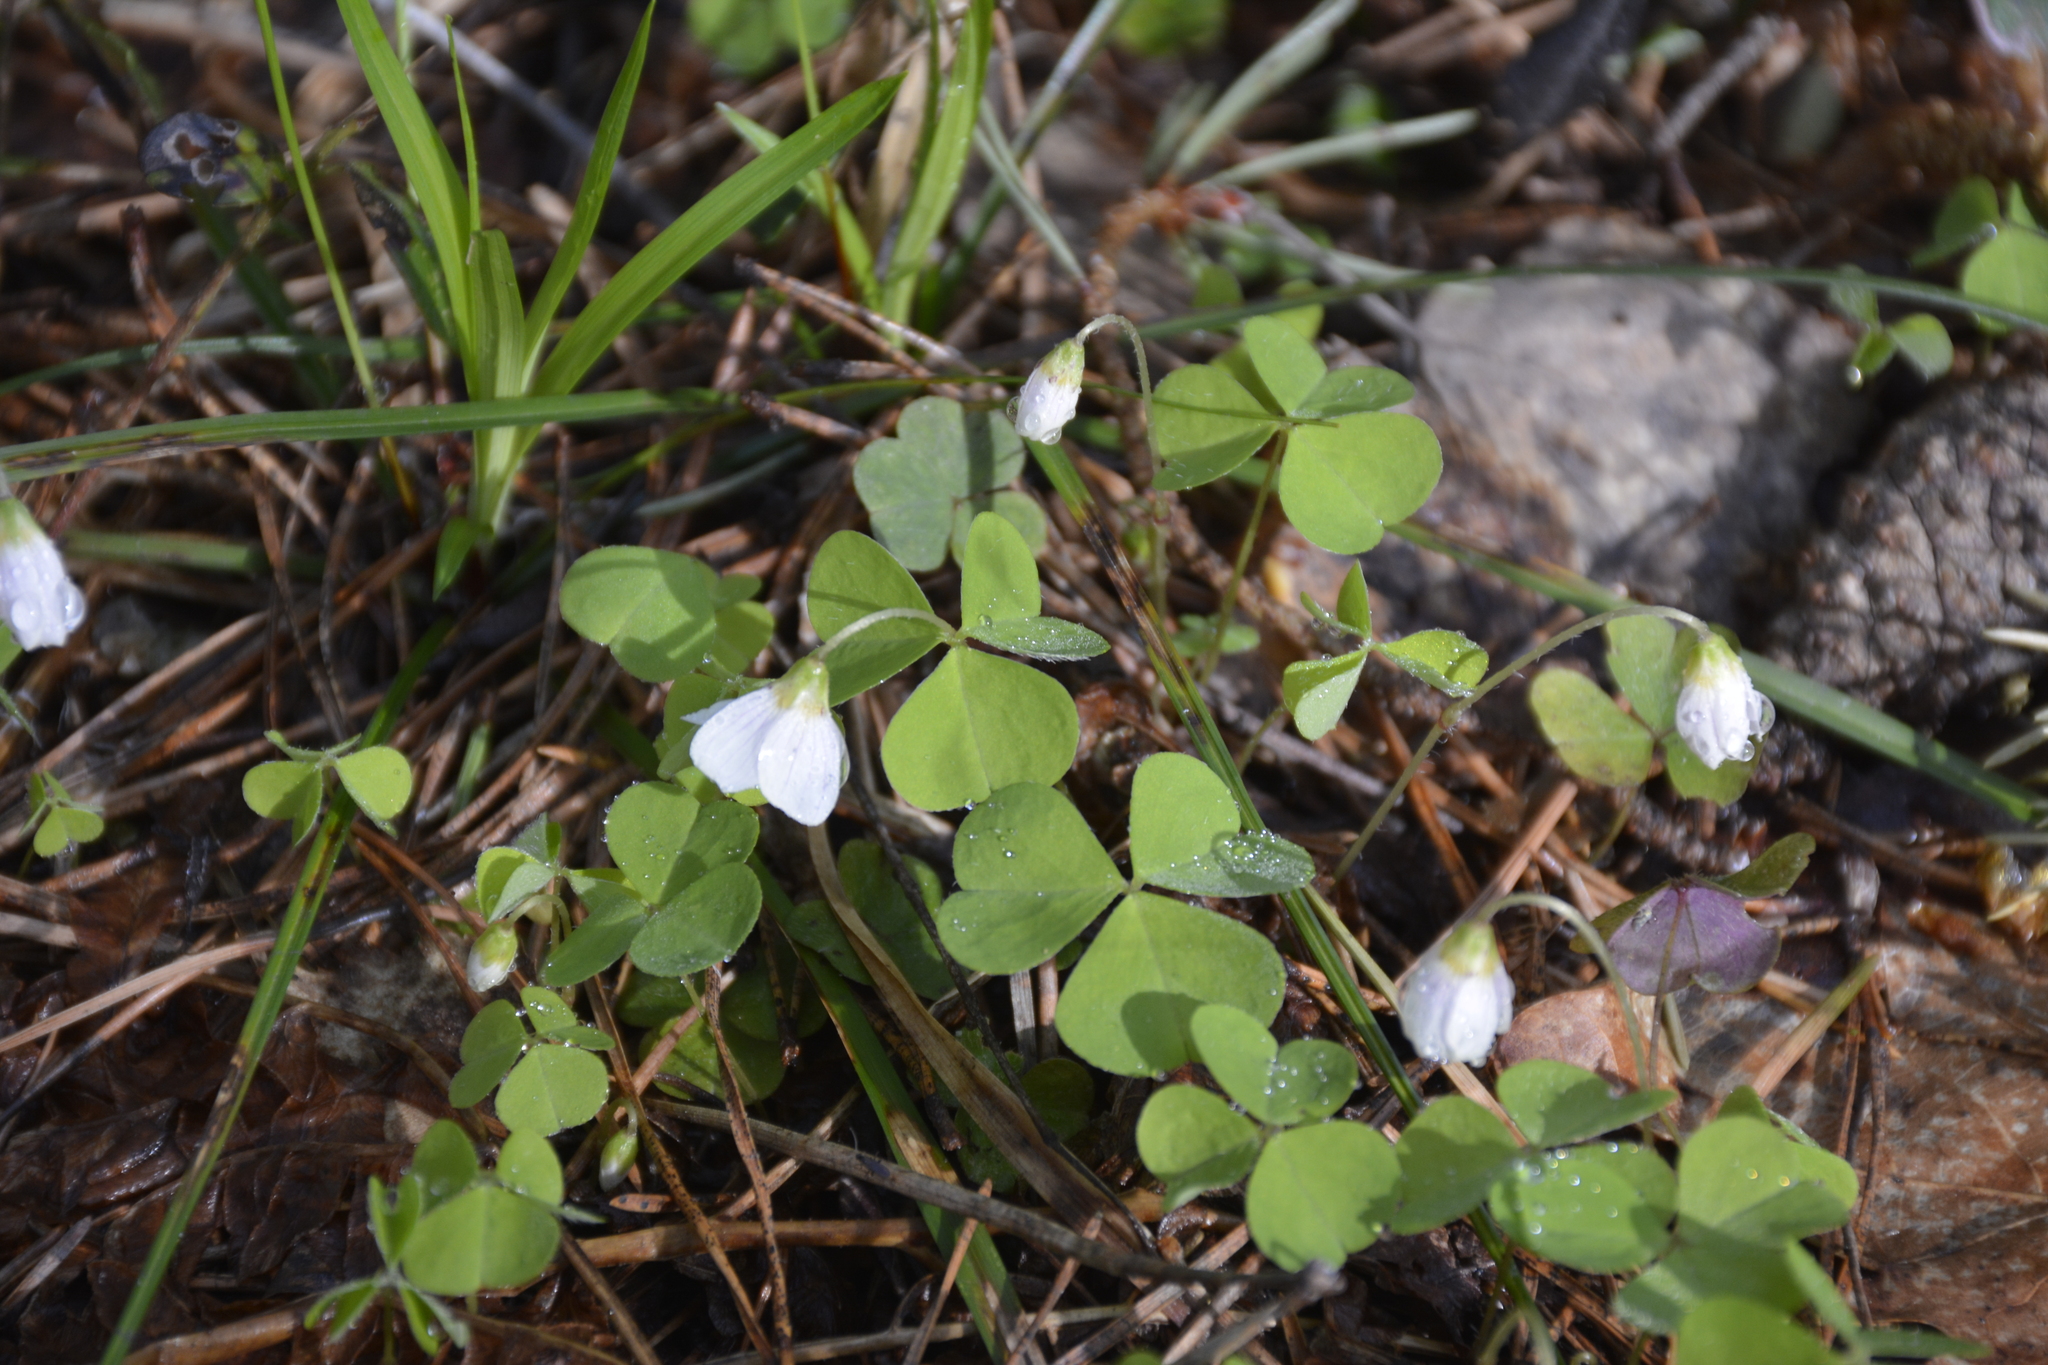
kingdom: Plantae
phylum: Tracheophyta
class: Magnoliopsida
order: Oxalidales
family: Oxalidaceae
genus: Oxalis
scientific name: Oxalis acetosella
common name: Wood-sorrel
